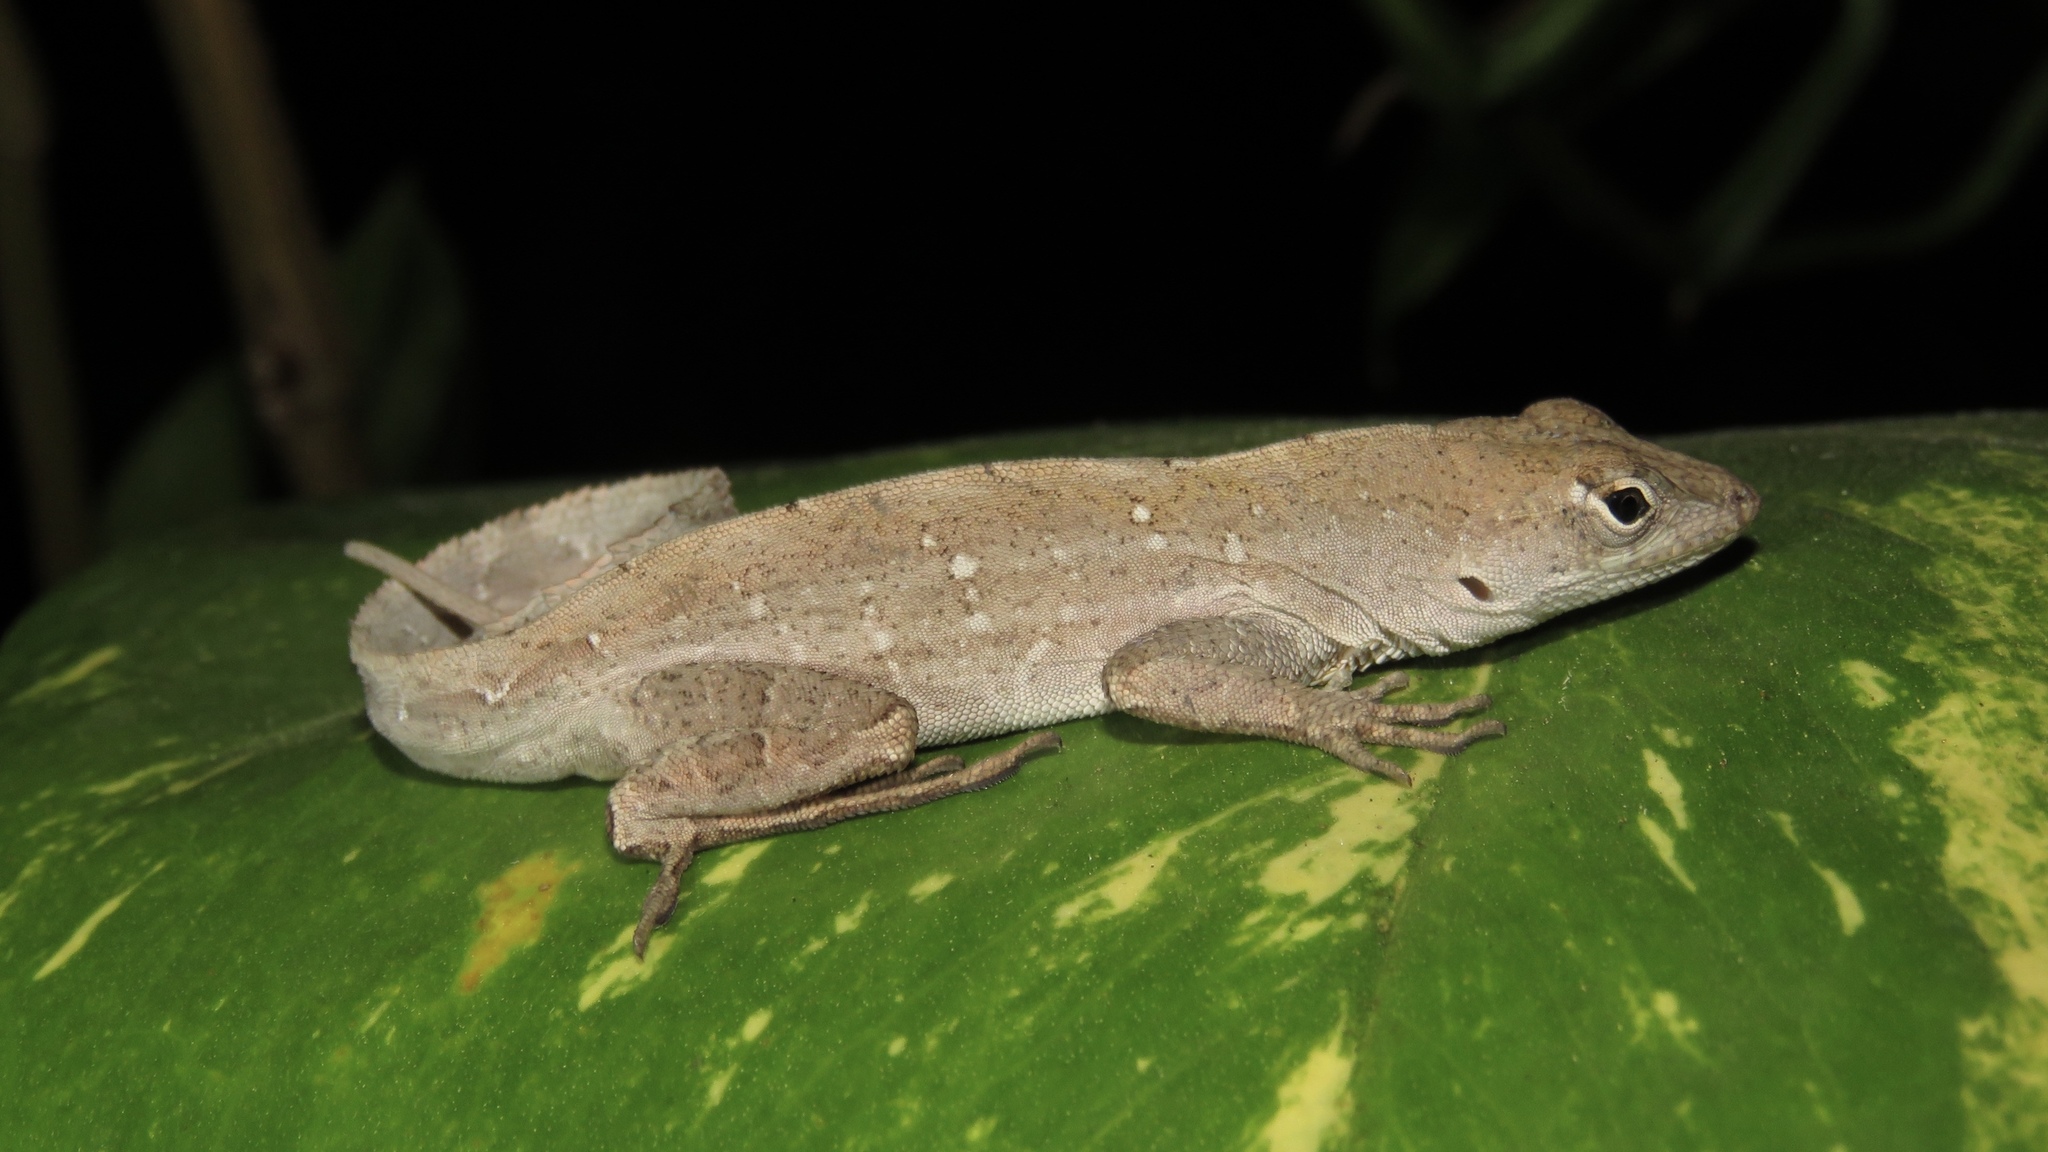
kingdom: Animalia
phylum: Chordata
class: Squamata
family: Dactyloidae
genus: Anolis
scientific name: Anolis sagrei
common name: Brown anole
